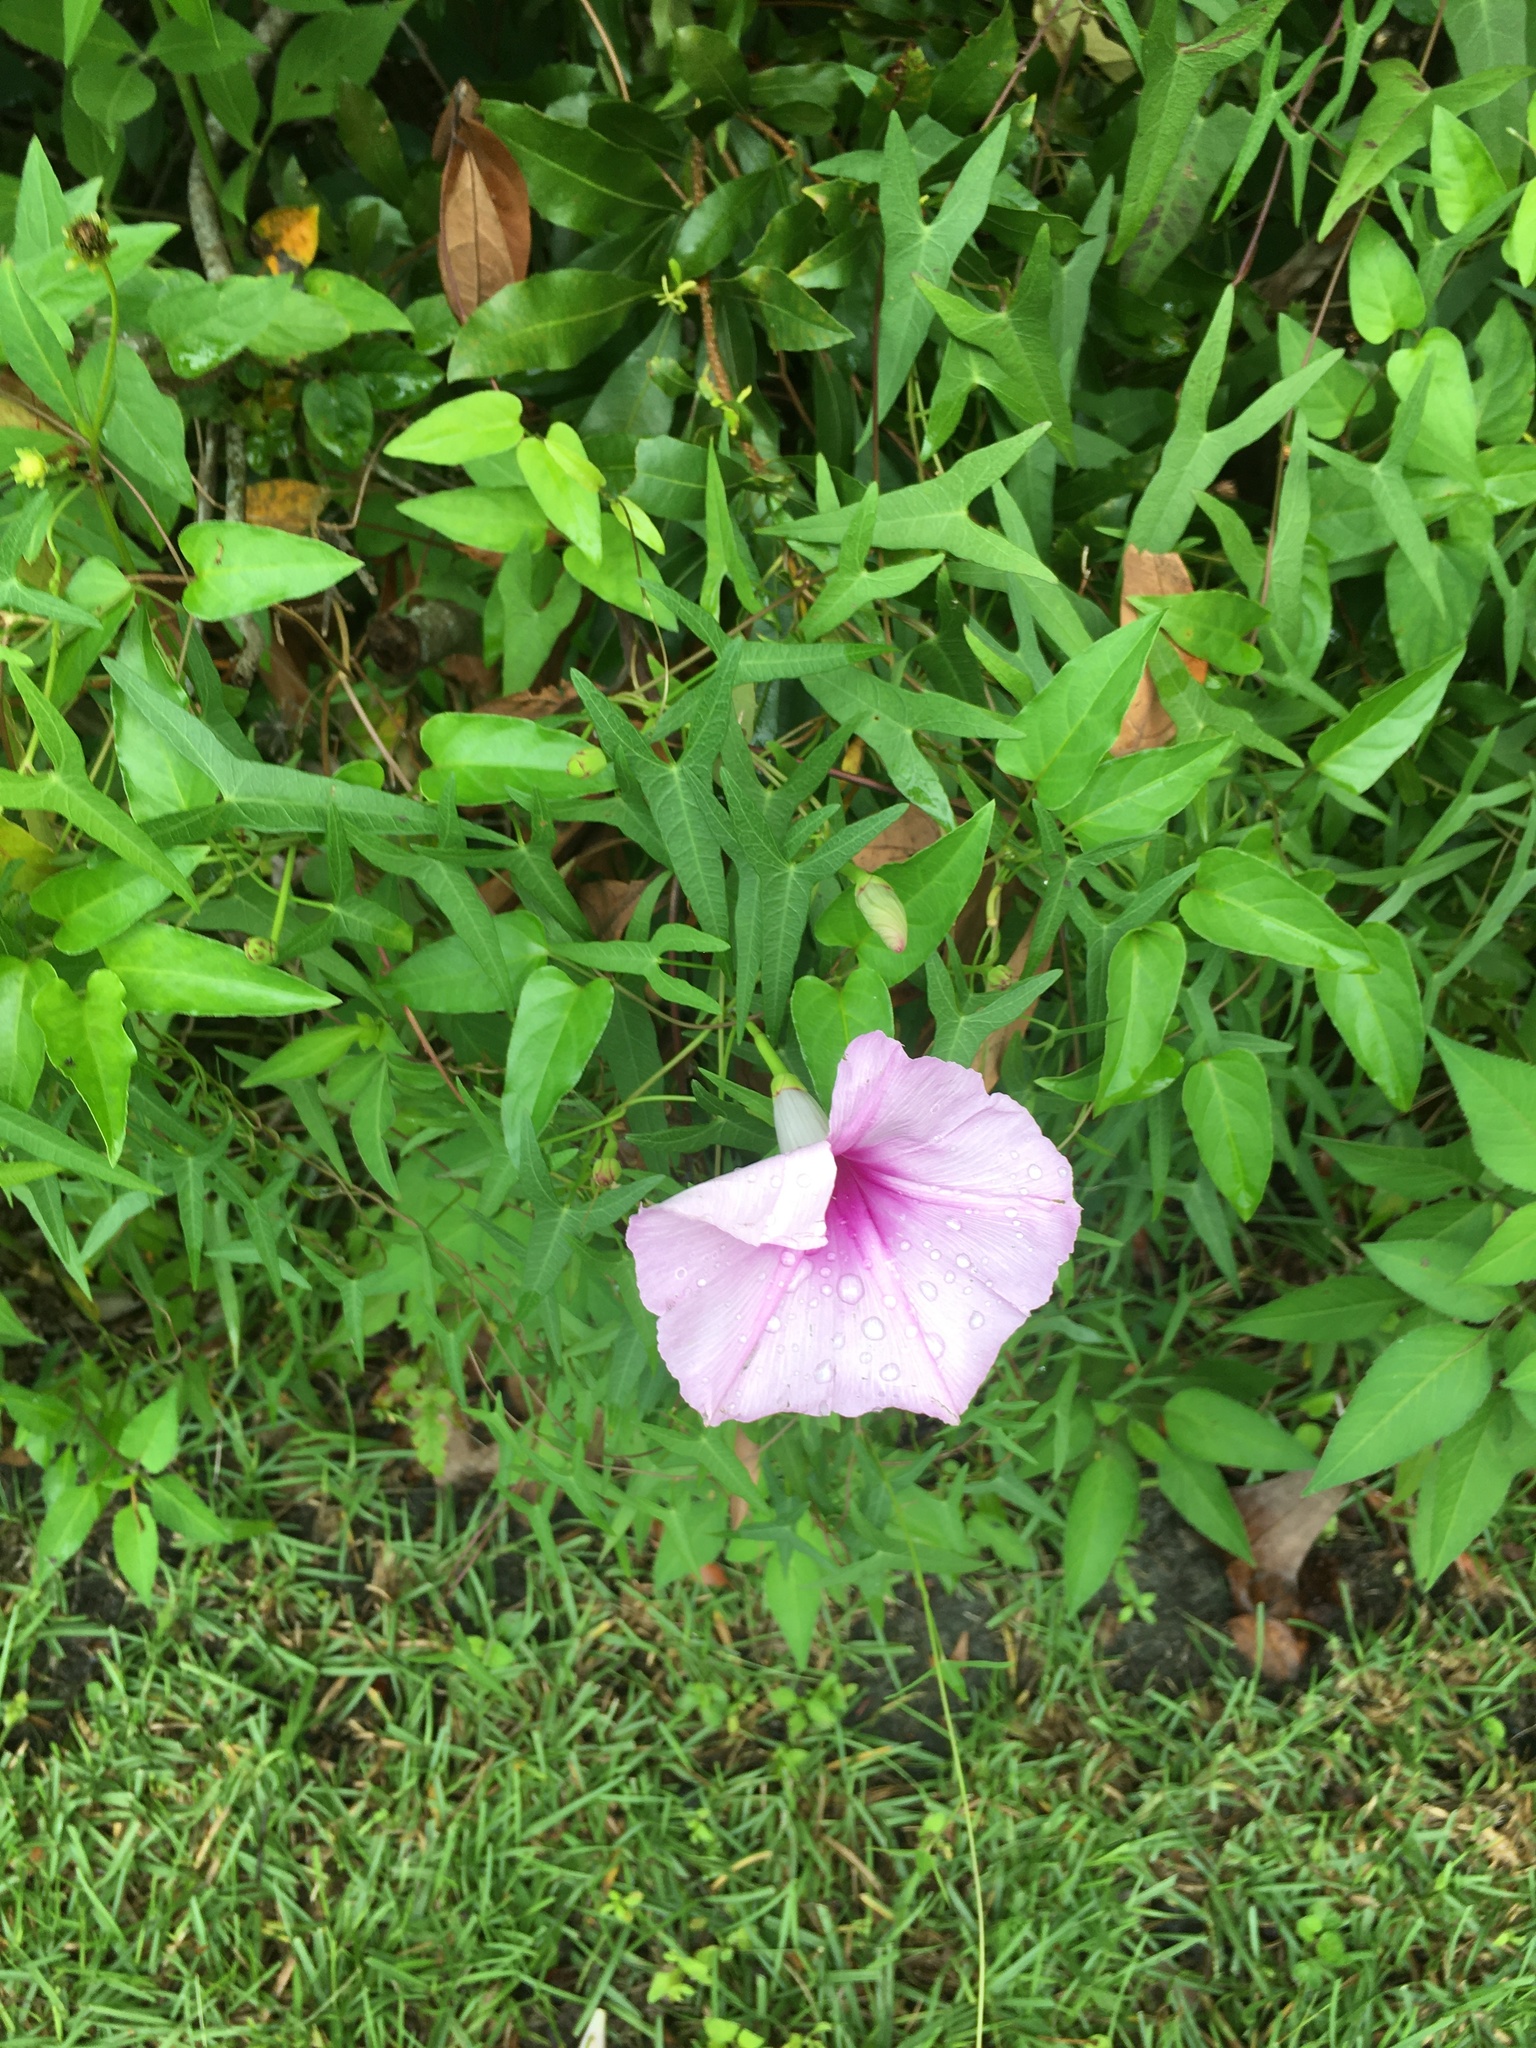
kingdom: Plantae
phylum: Tracheophyta
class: Magnoliopsida
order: Solanales
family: Convolvulaceae
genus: Ipomoea
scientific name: Ipomoea sagittata
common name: Saltmarsh morning glory
